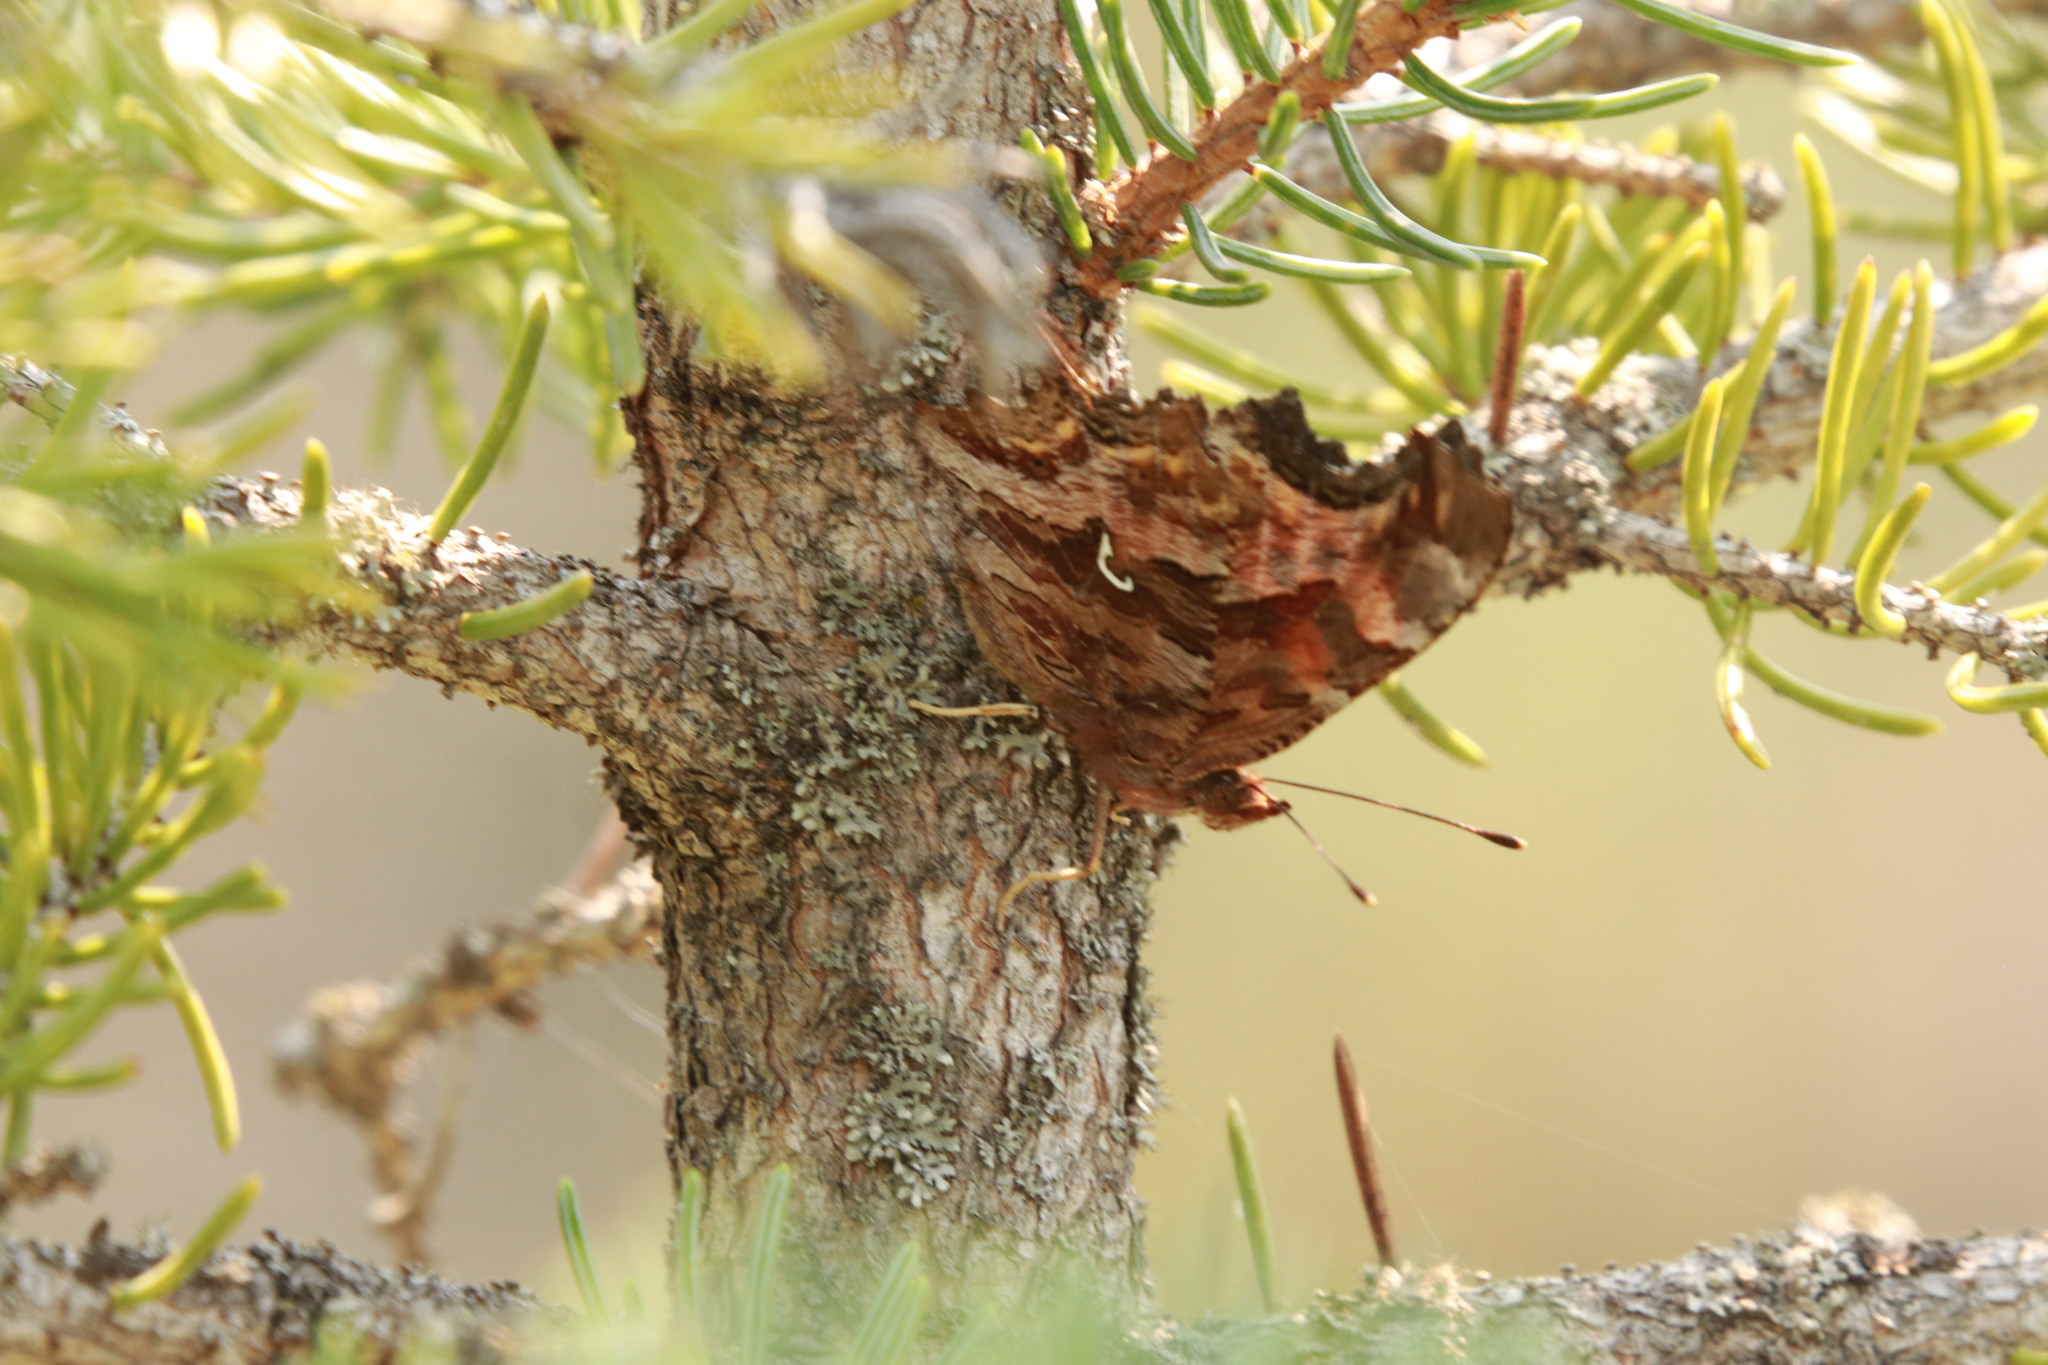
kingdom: Animalia
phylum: Arthropoda
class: Insecta
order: Lepidoptera
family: Nymphalidae
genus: Polygonia
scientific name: Polygonia satyrus
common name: Satyr angle wing
